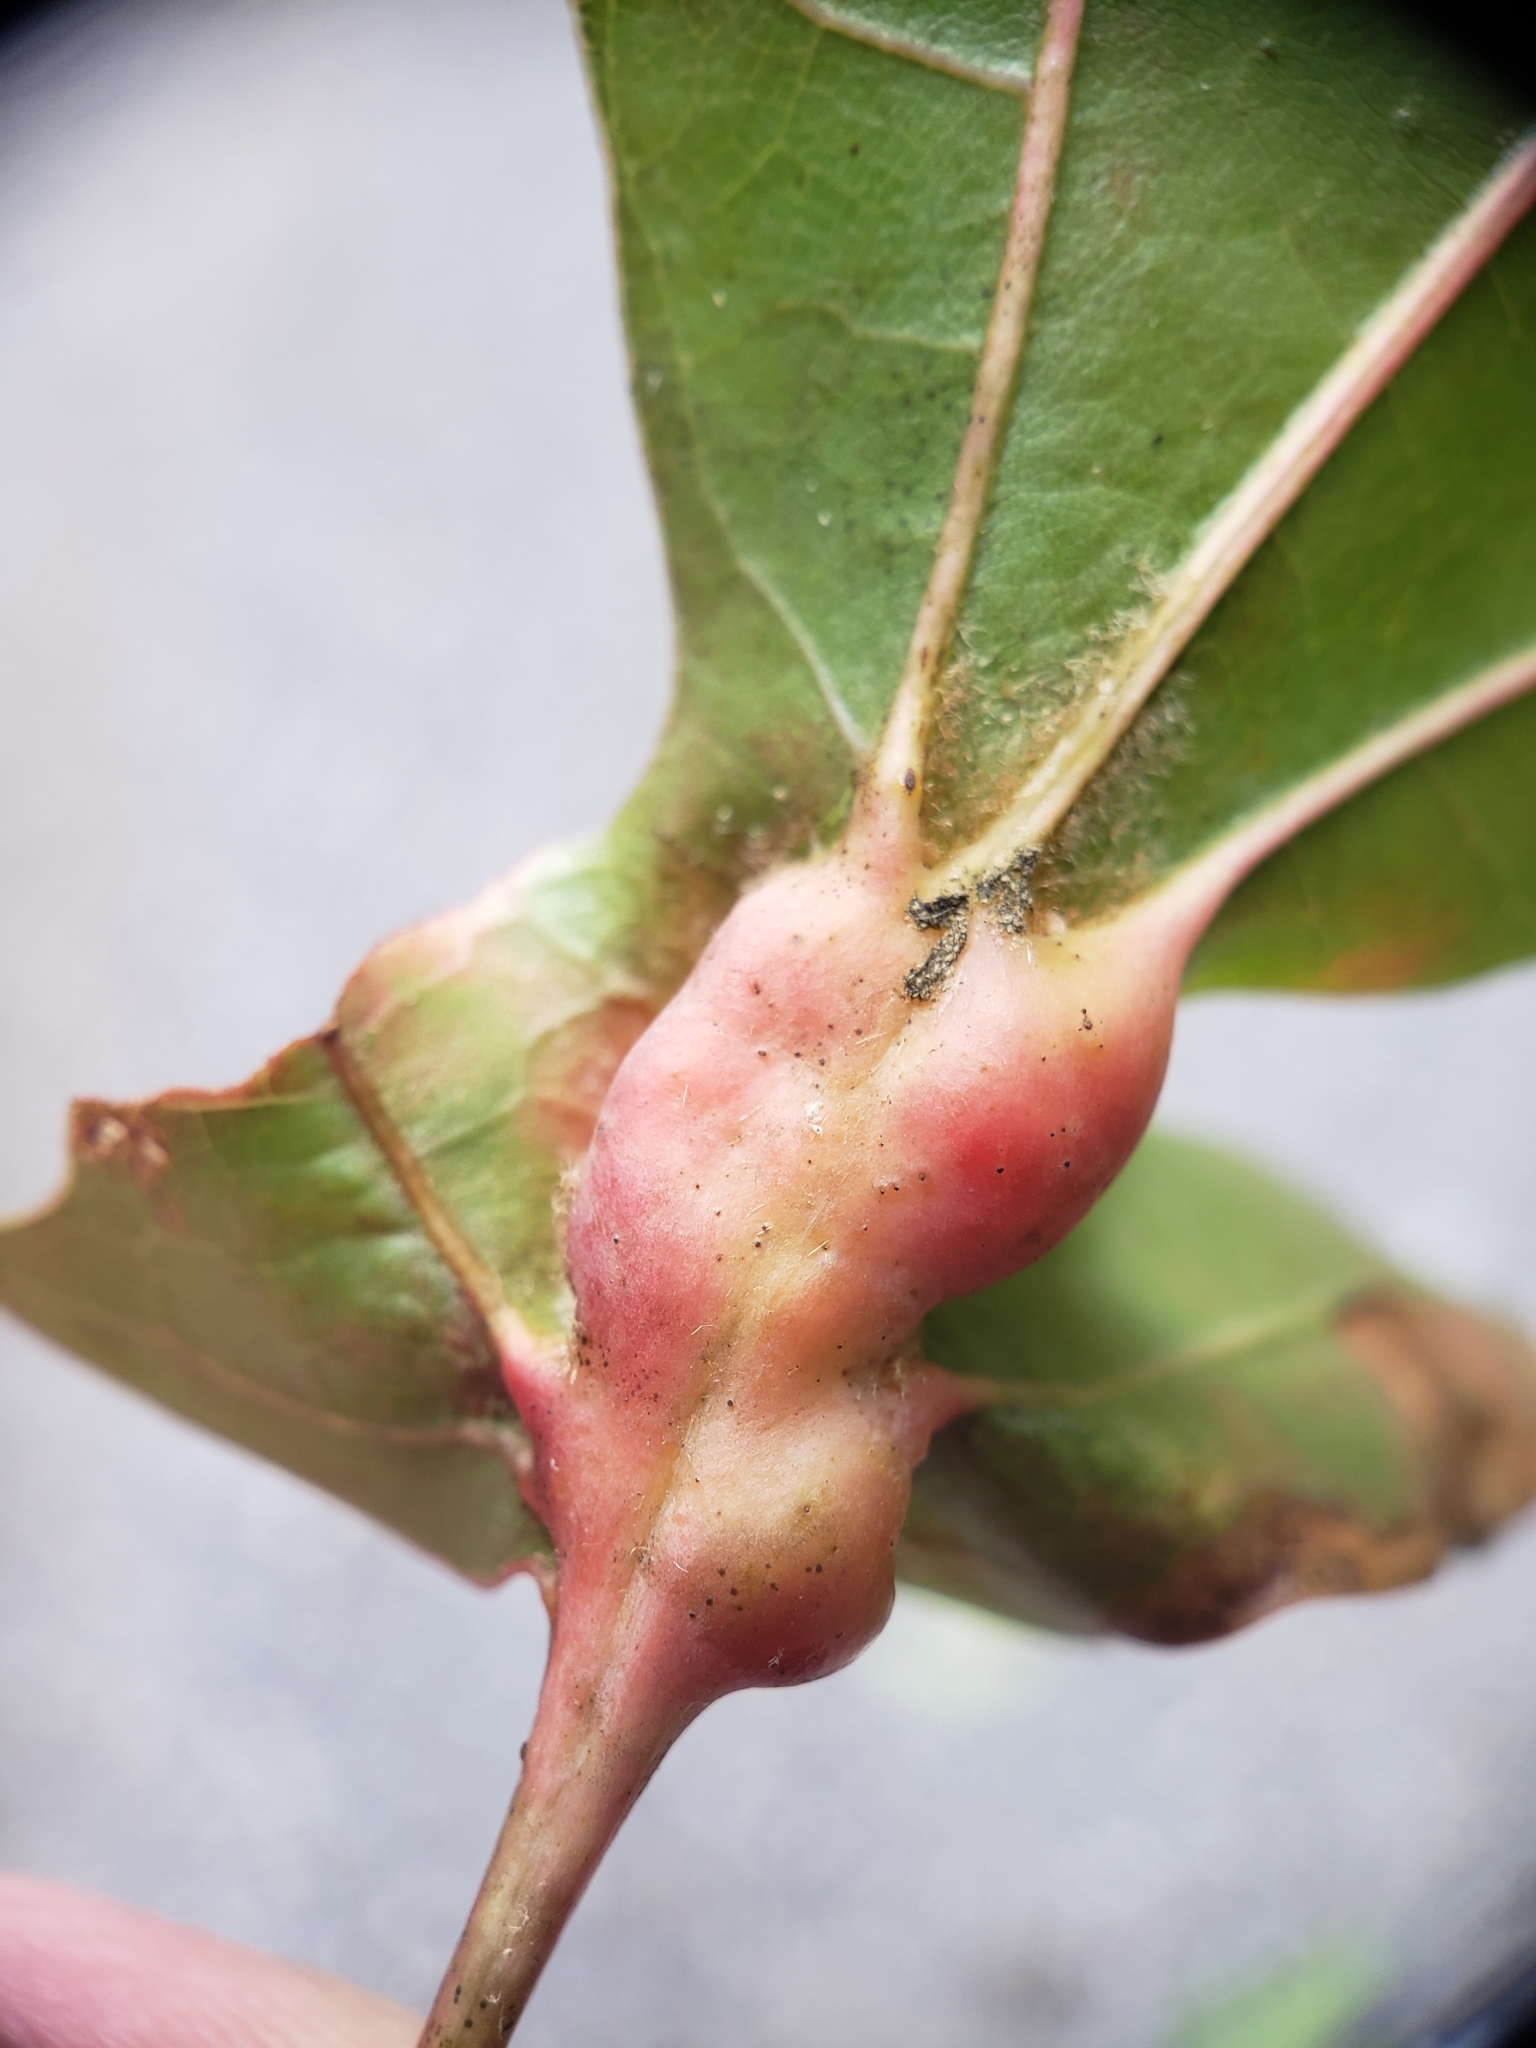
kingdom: Animalia
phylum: Arthropoda
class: Insecta
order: Hymenoptera
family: Cynipidae
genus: Melikaiella
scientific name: Melikaiella tumifica
